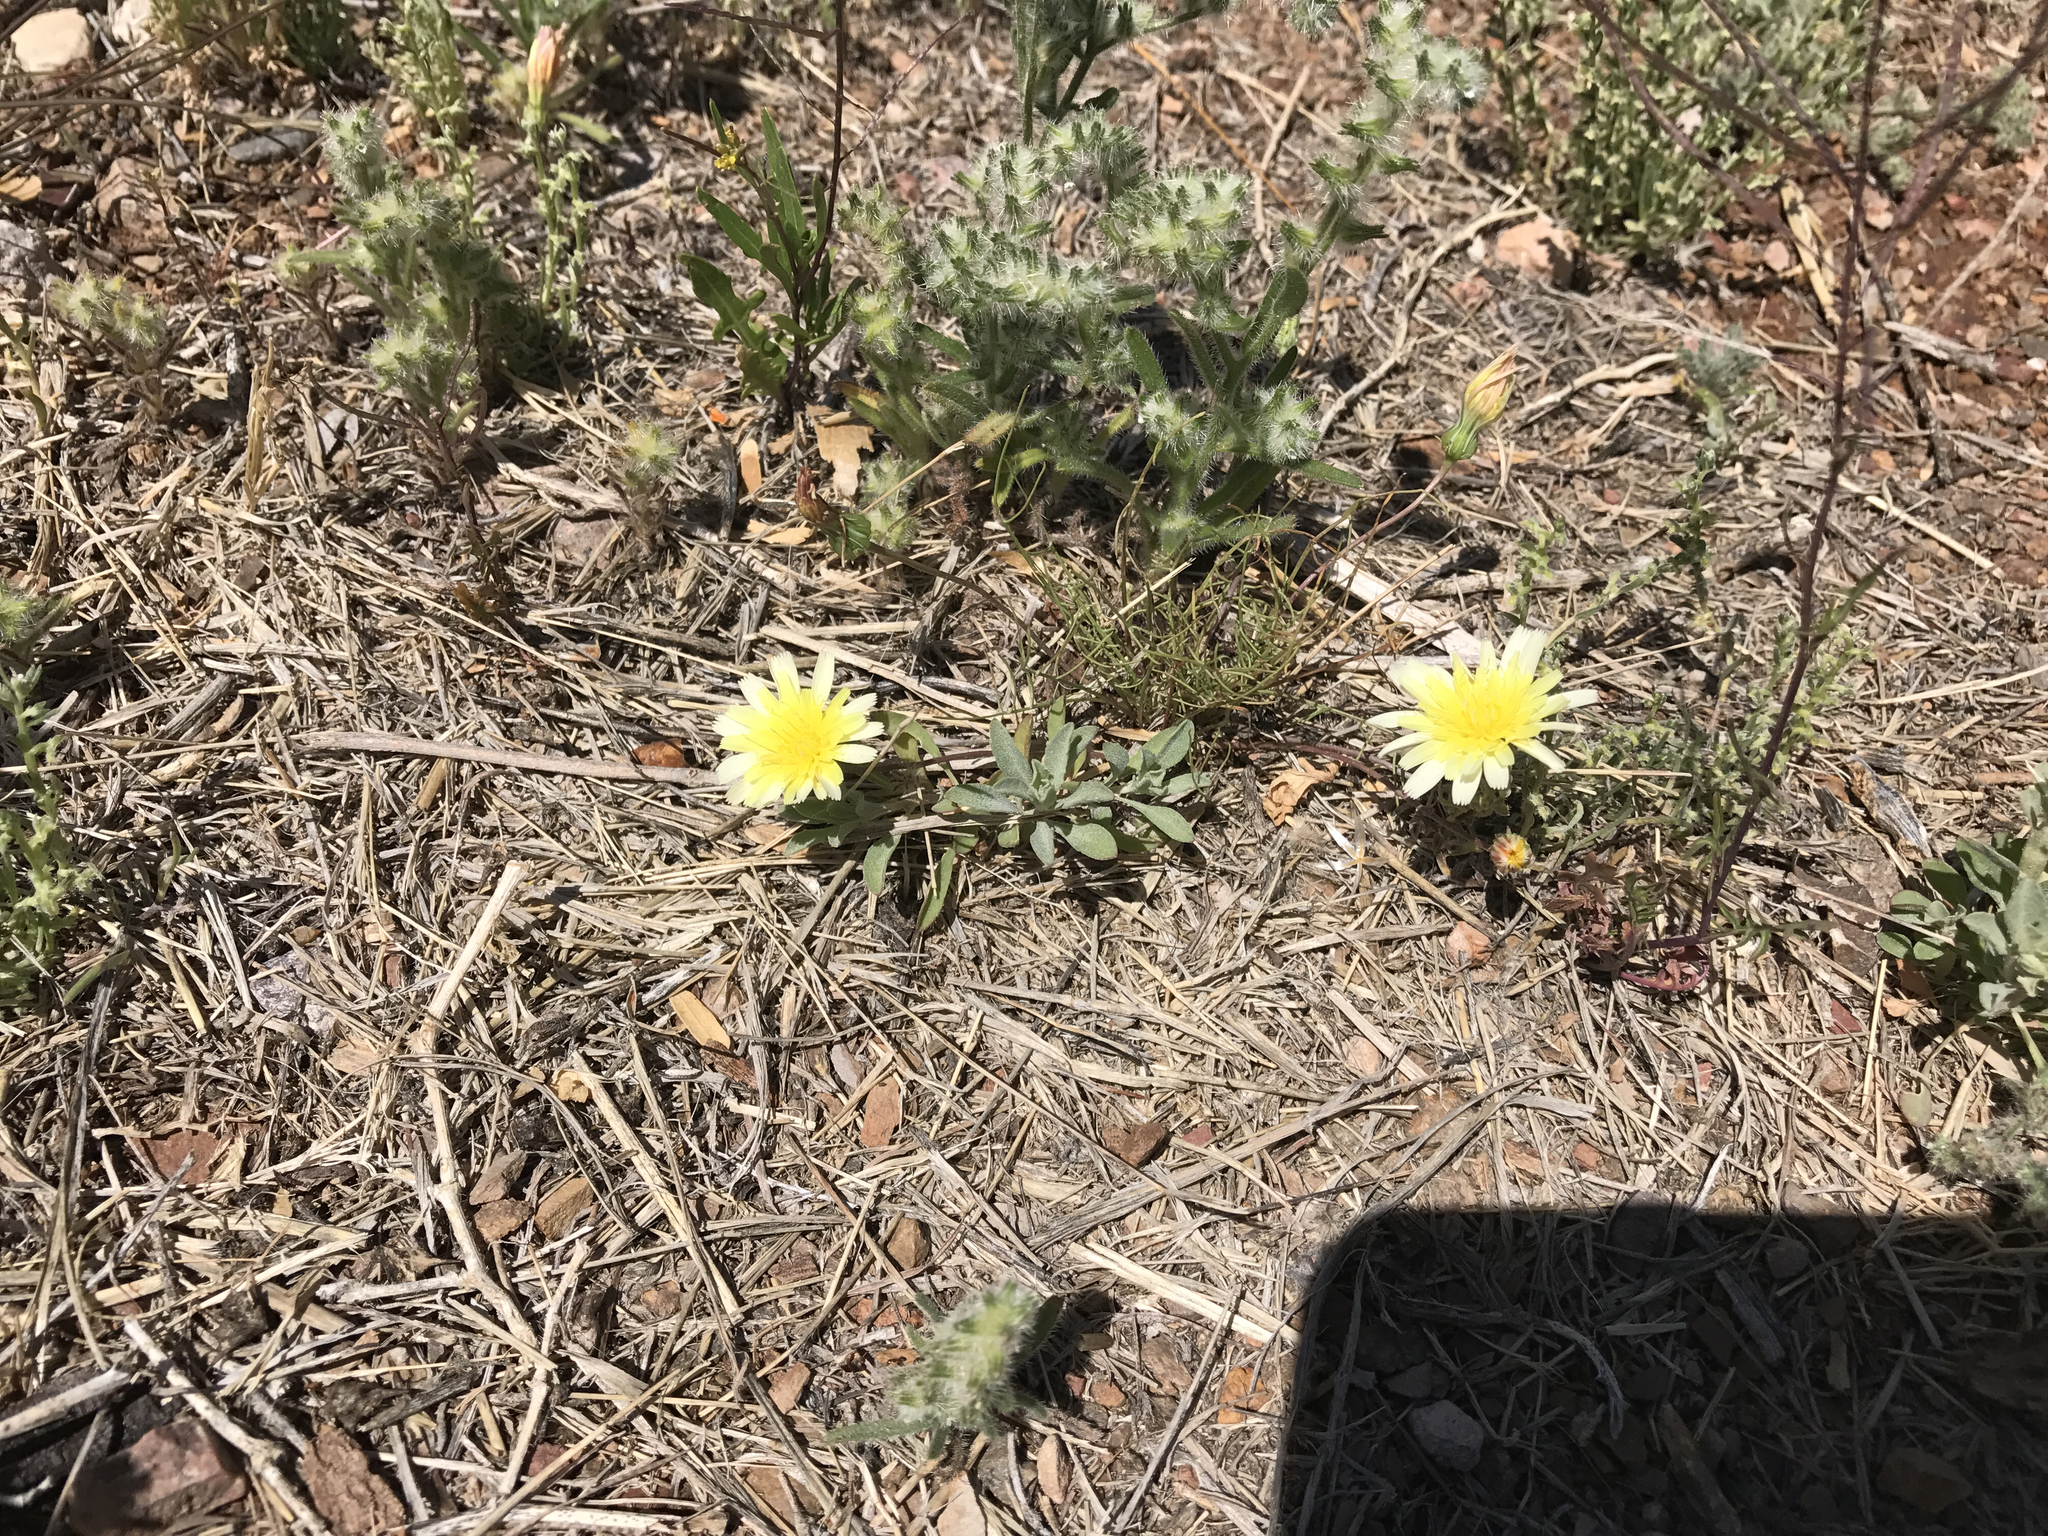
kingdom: Plantae
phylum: Tracheophyta
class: Magnoliopsida
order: Asterales
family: Asteraceae
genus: Malacothrix
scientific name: Malacothrix glabrata
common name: Smooth desert-dandelion
